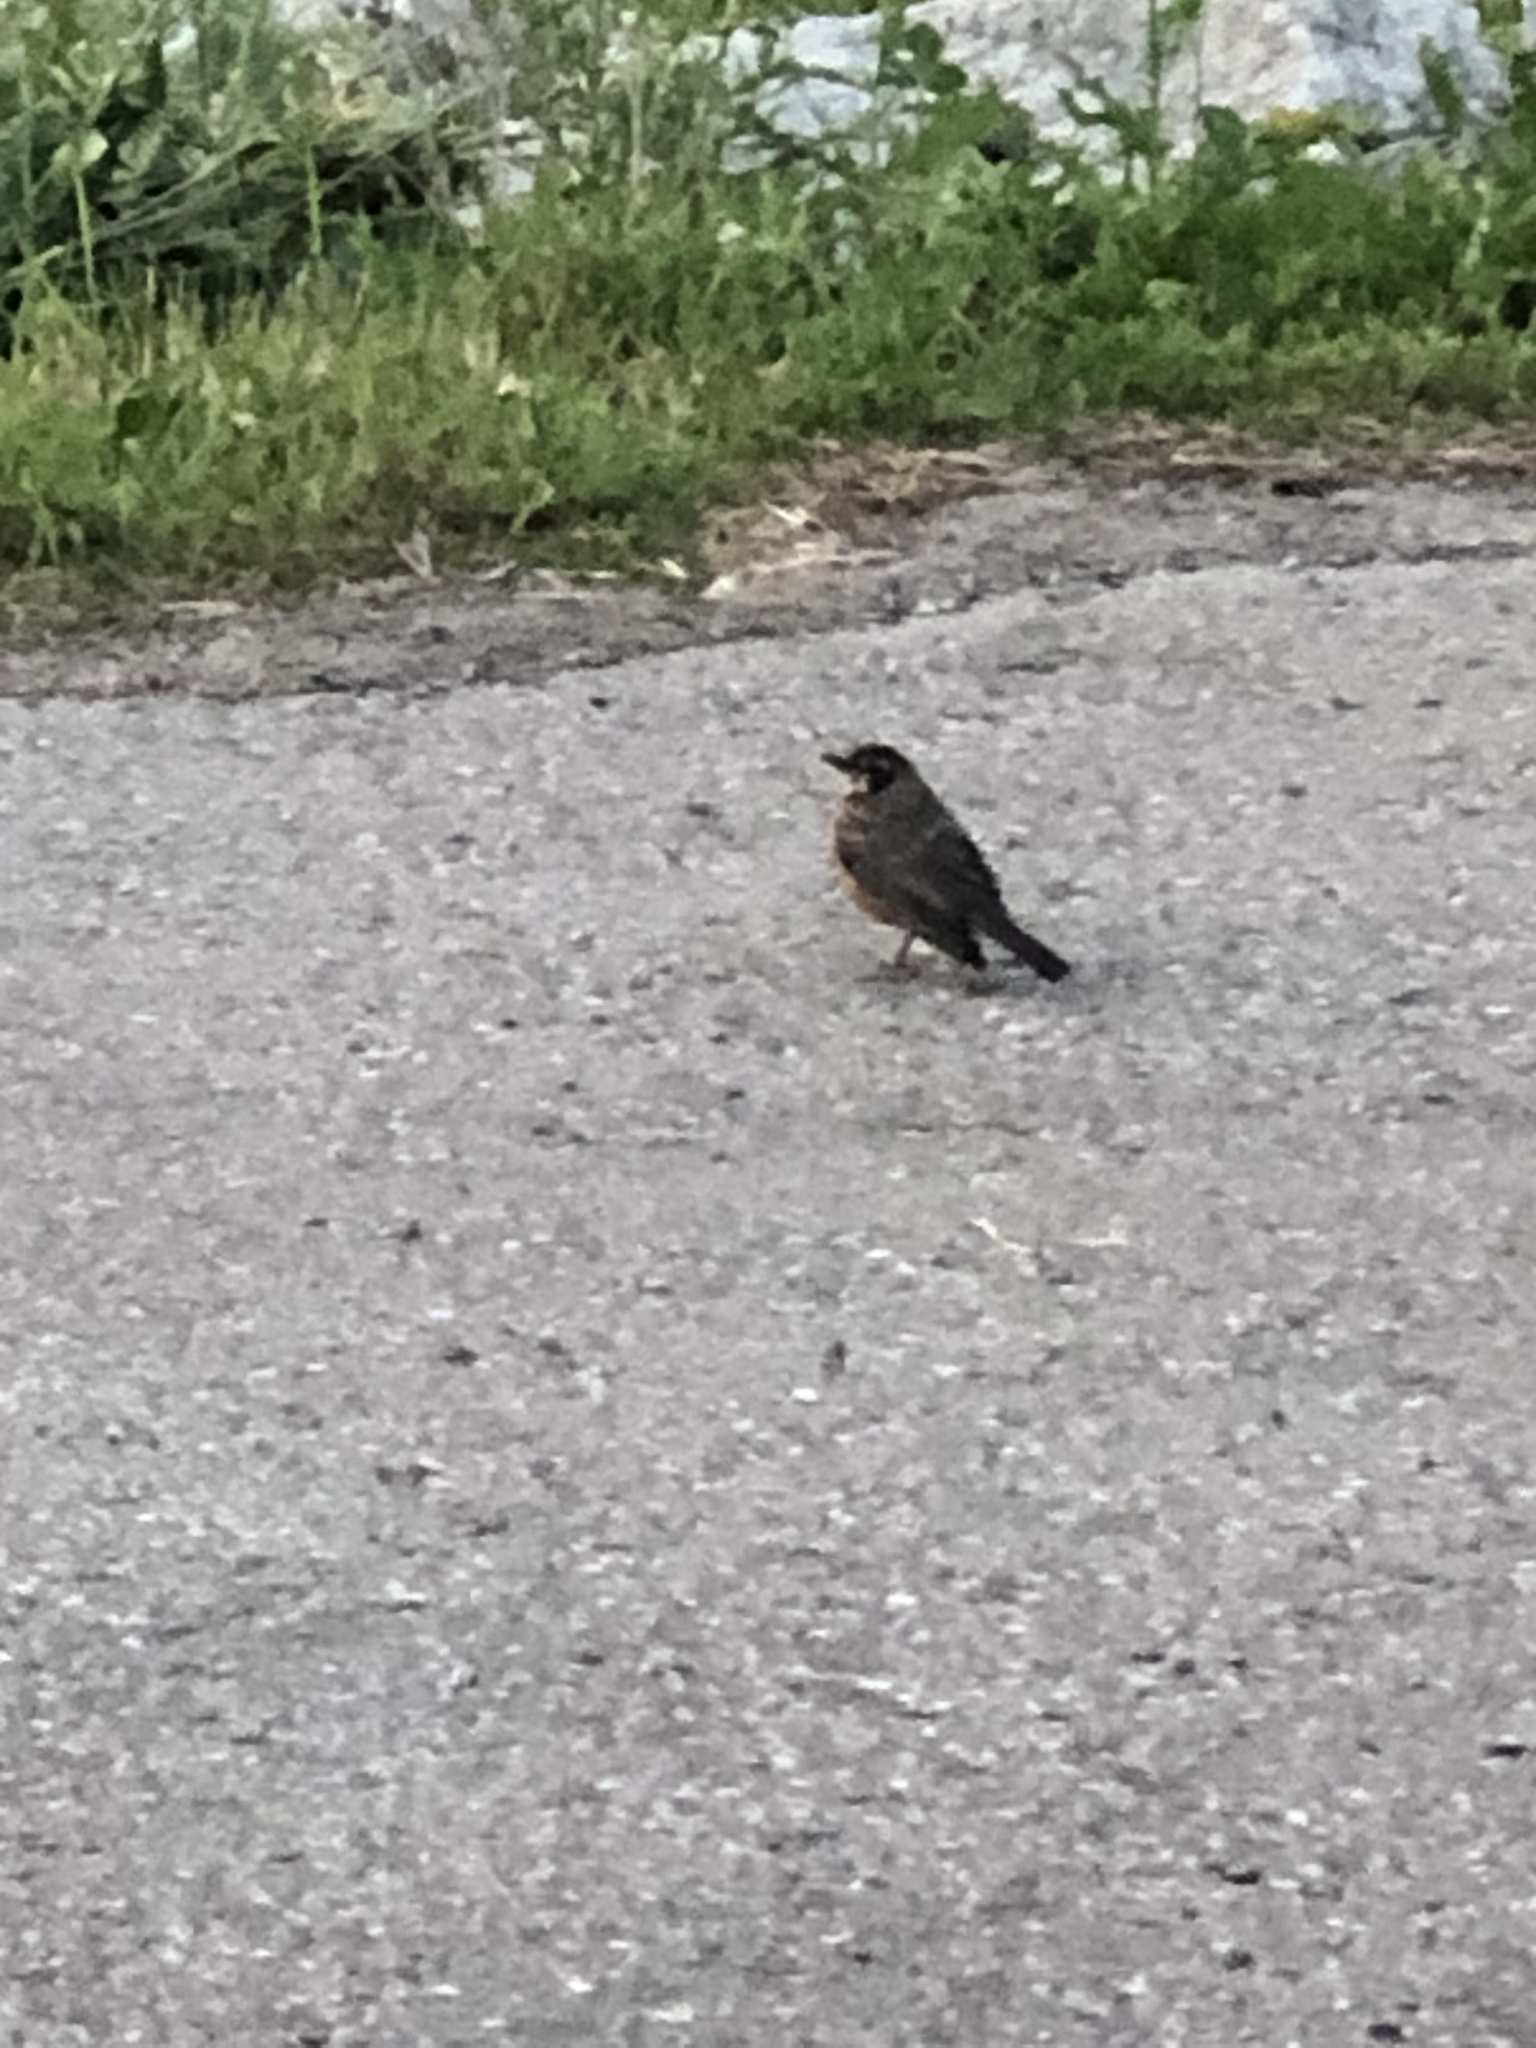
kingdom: Animalia
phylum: Chordata
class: Aves
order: Passeriformes
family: Turdidae
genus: Turdus
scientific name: Turdus migratorius
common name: American robin
